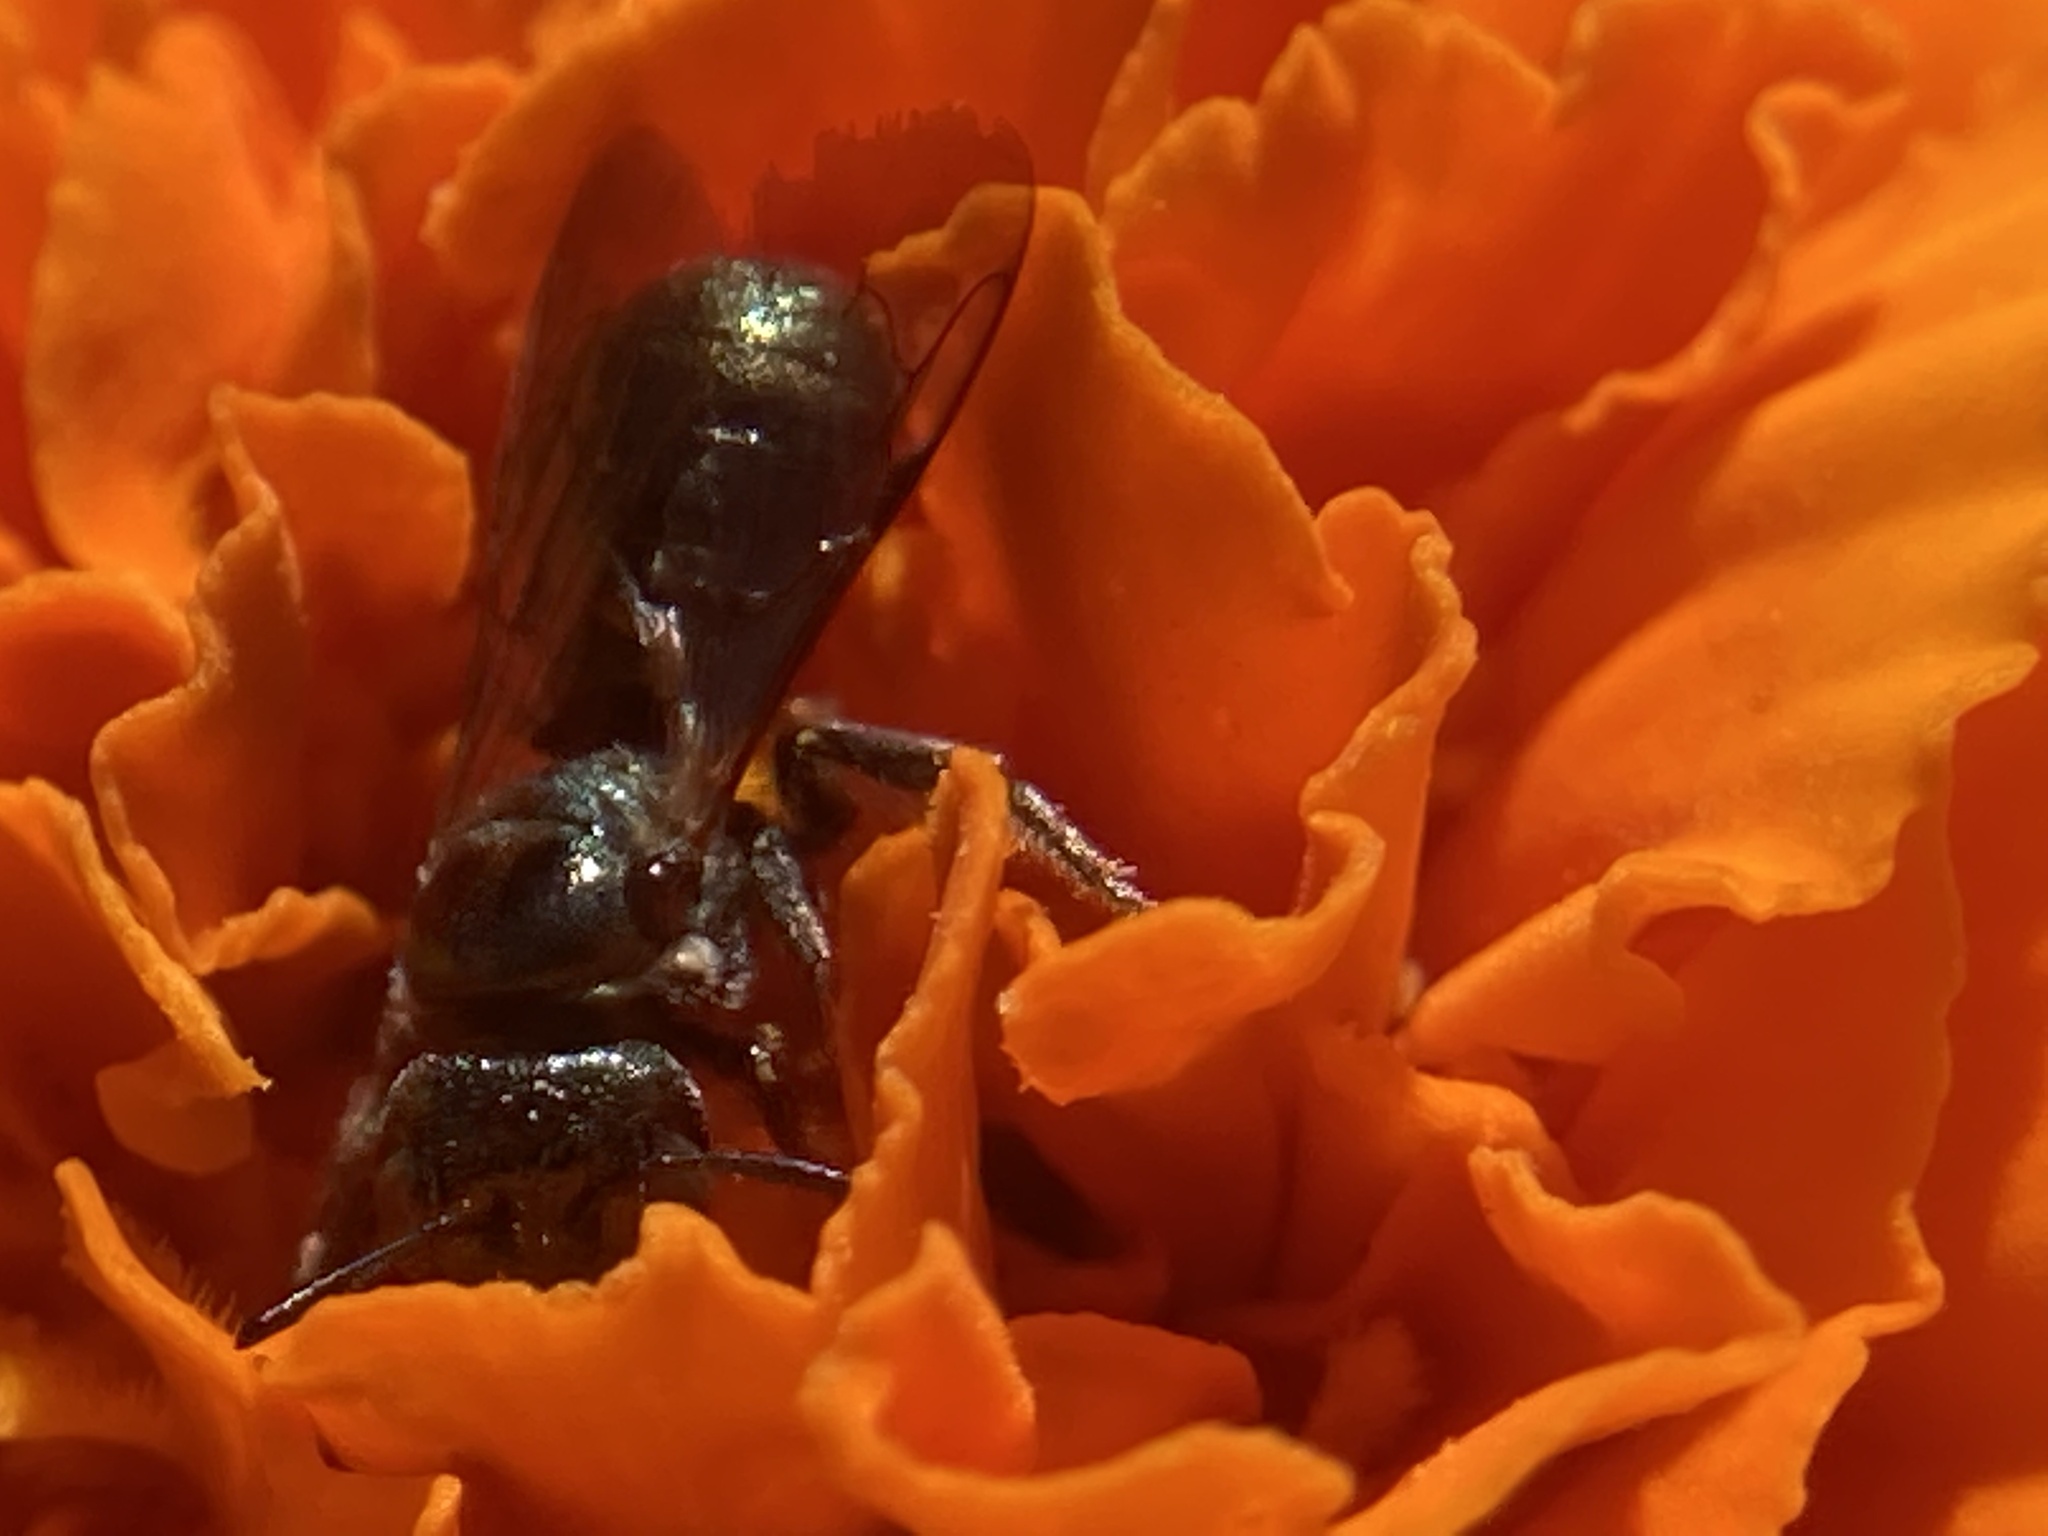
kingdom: Animalia
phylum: Arthropoda
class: Insecta
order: Hymenoptera
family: Apidae
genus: Zadontomerus
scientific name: Zadontomerus
